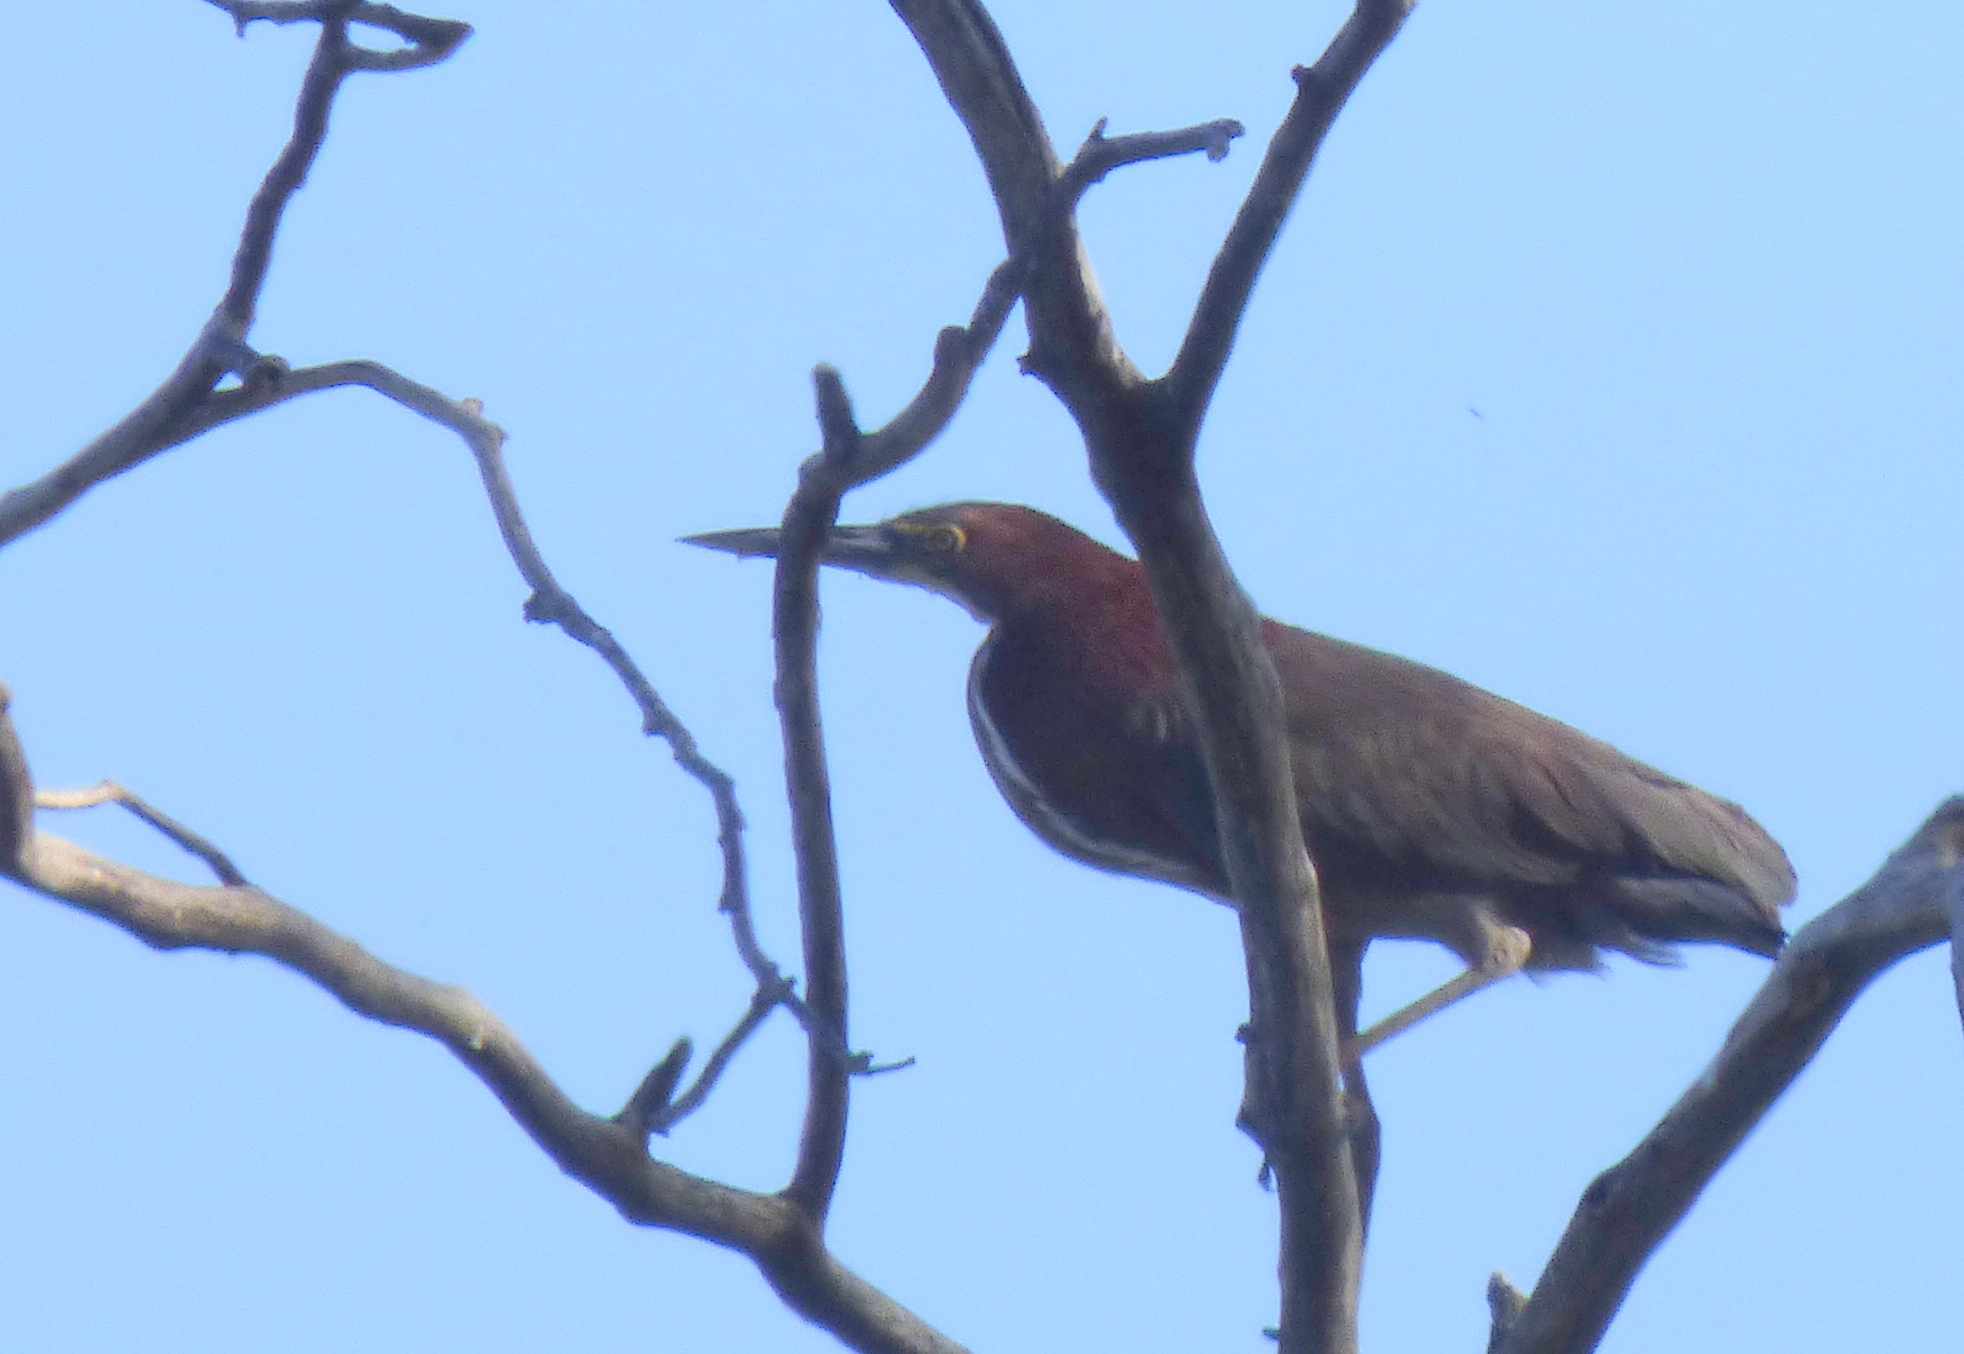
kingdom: Animalia
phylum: Chordata
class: Aves
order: Pelecaniformes
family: Ardeidae
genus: Tigrisoma
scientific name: Tigrisoma lineatum
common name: Rufescent tiger-heron
